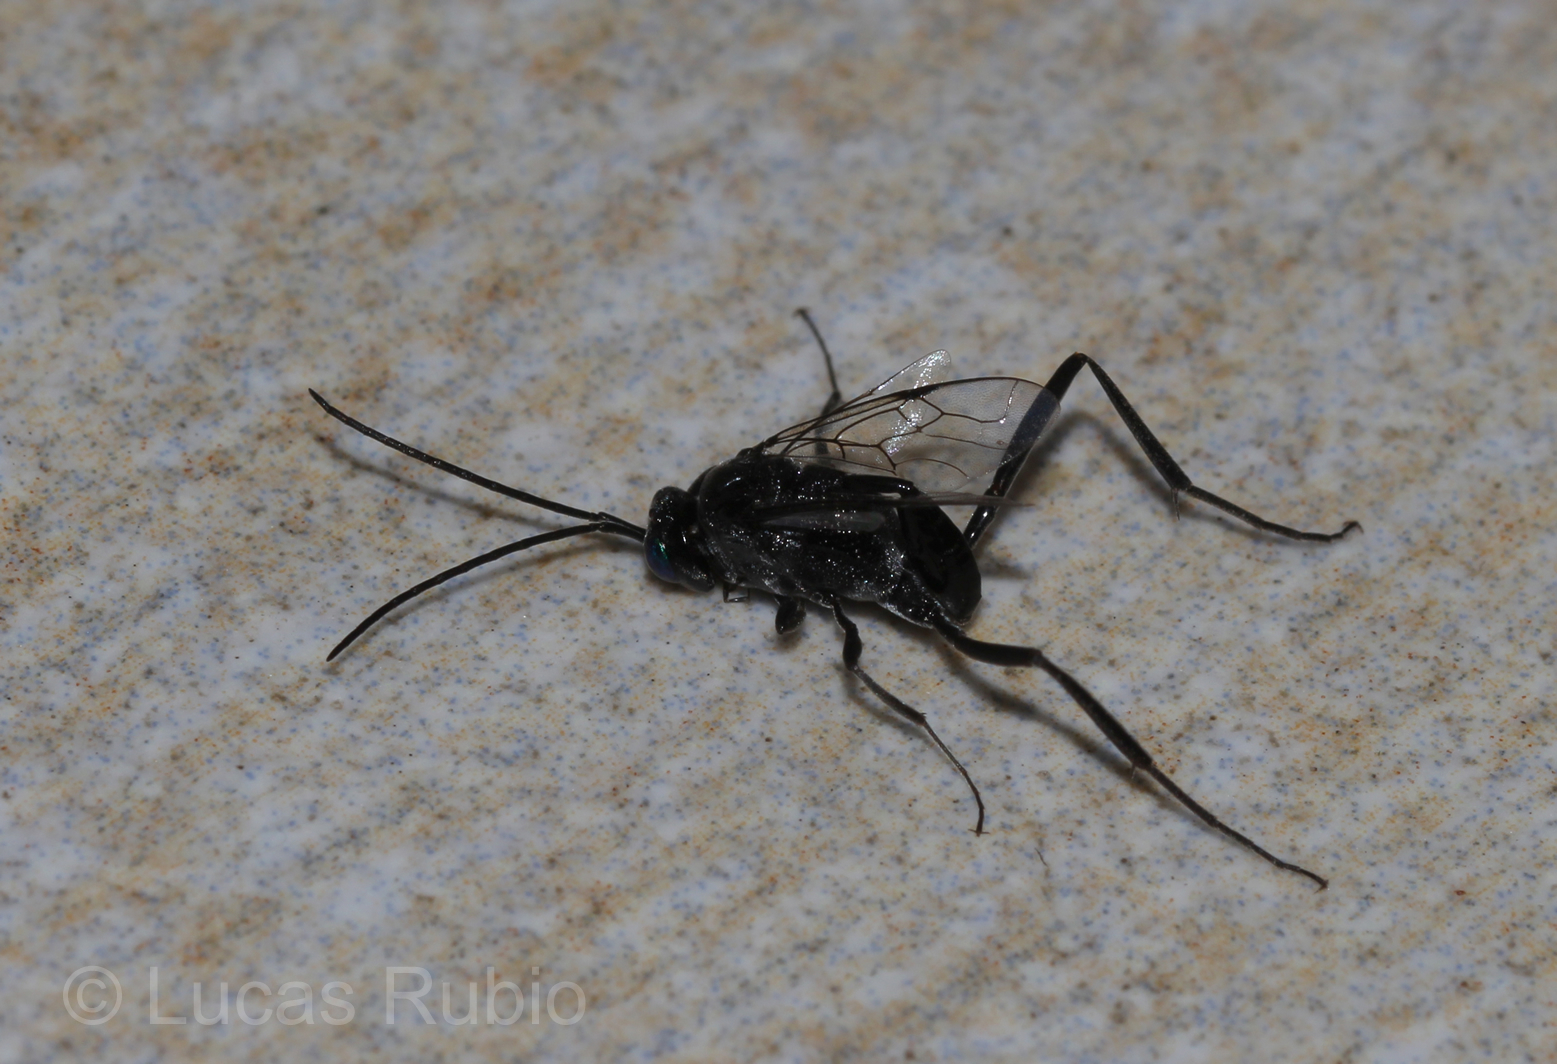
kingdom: Animalia
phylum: Arthropoda
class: Insecta
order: Hymenoptera
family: Evaniidae
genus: Evania
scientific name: Evania appendigaster
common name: Ensign wasp
